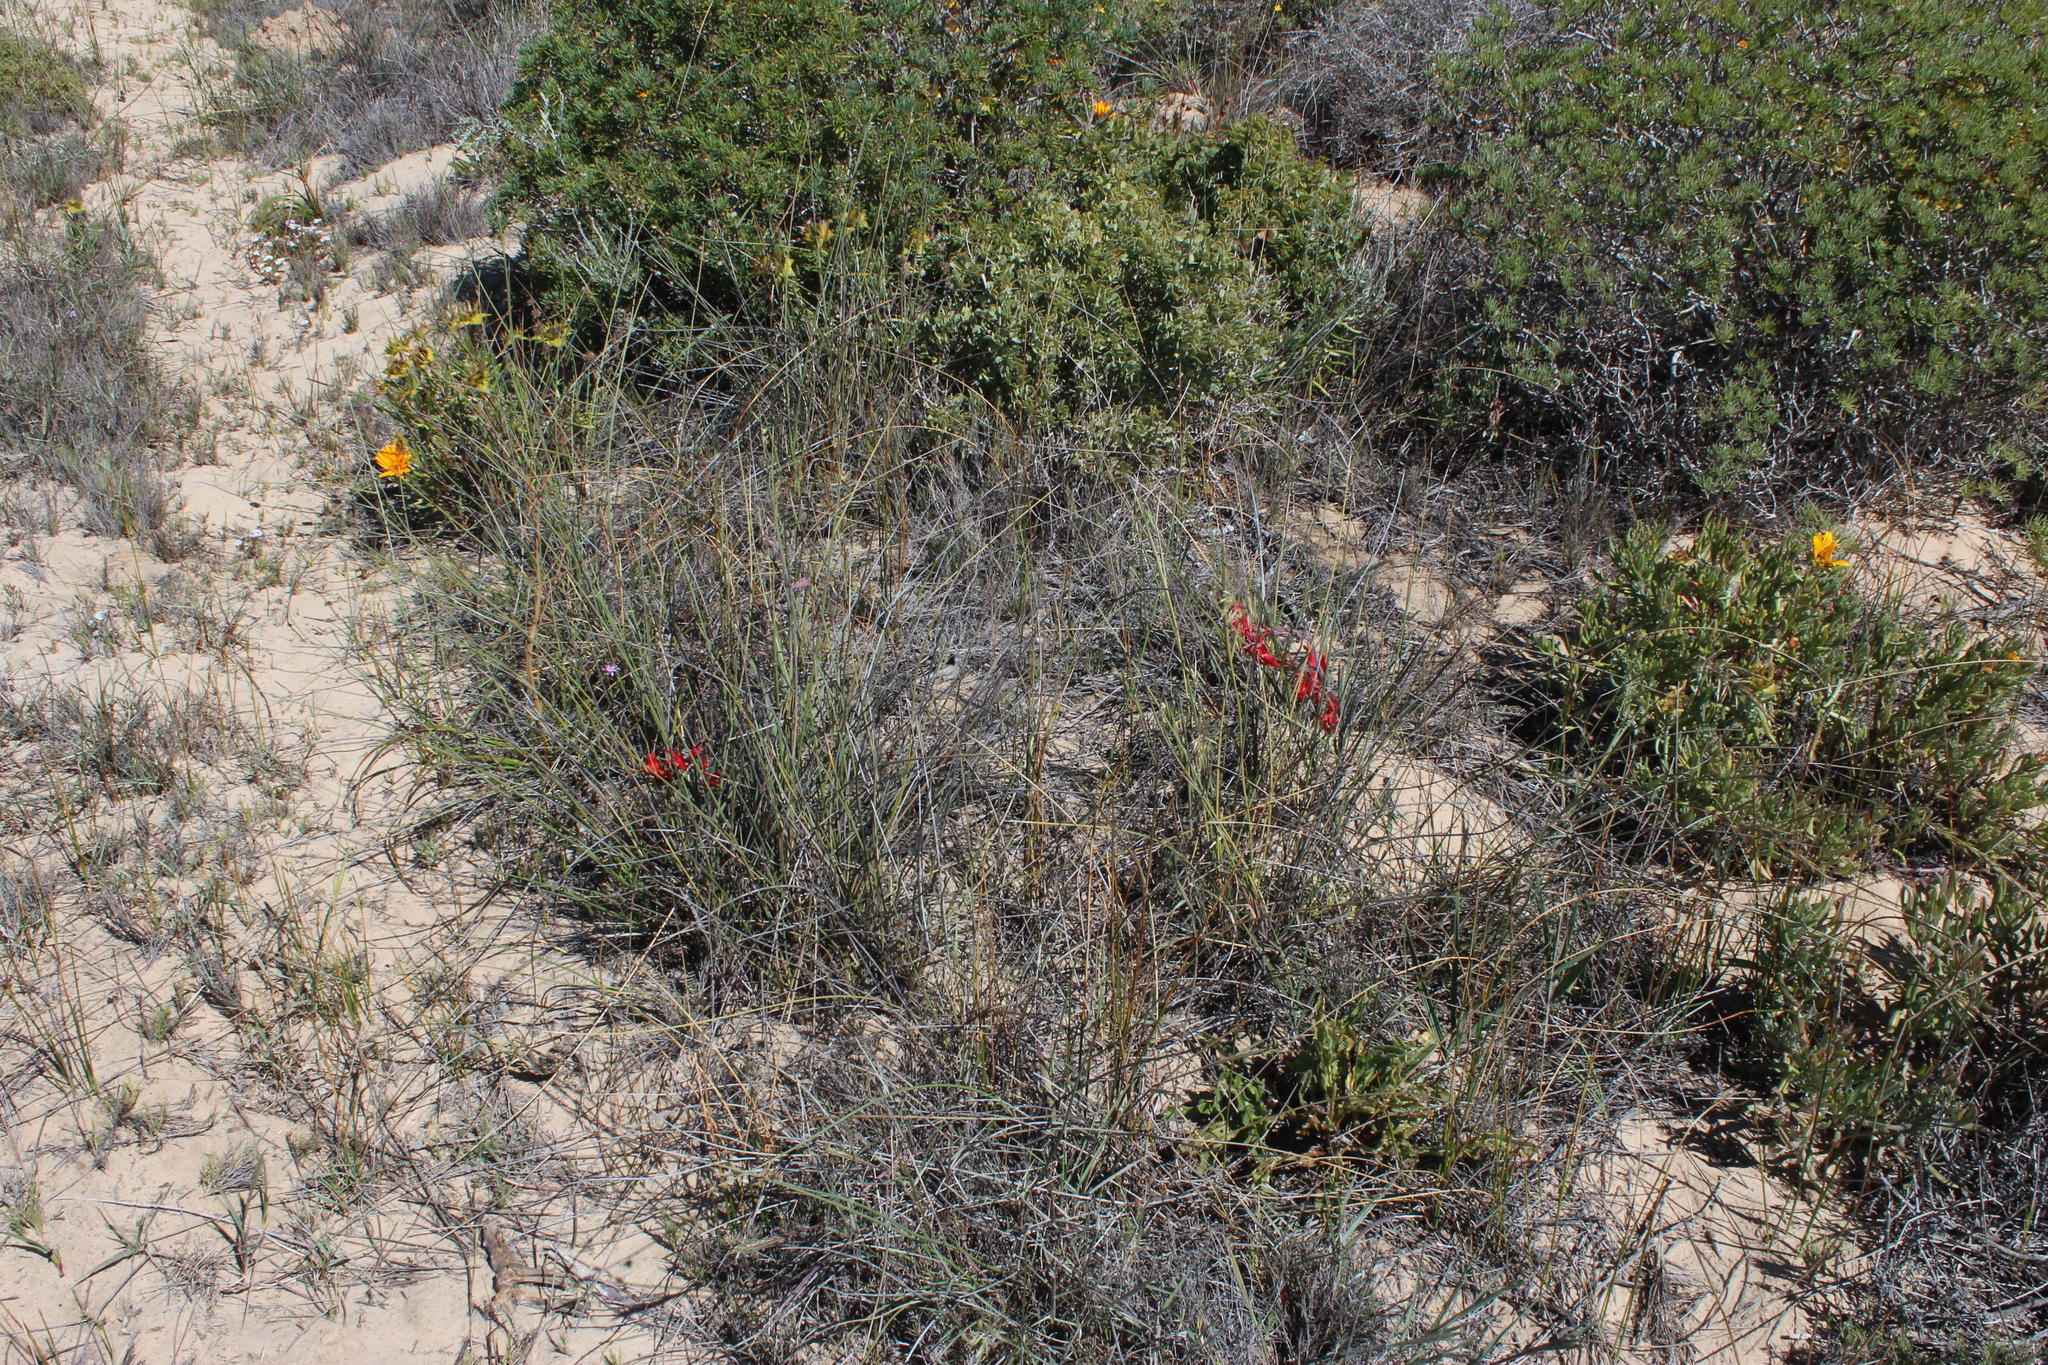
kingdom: Plantae
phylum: Tracheophyta
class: Liliopsida
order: Asparagales
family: Iridaceae
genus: Babiana
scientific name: Babiana hirsuta
